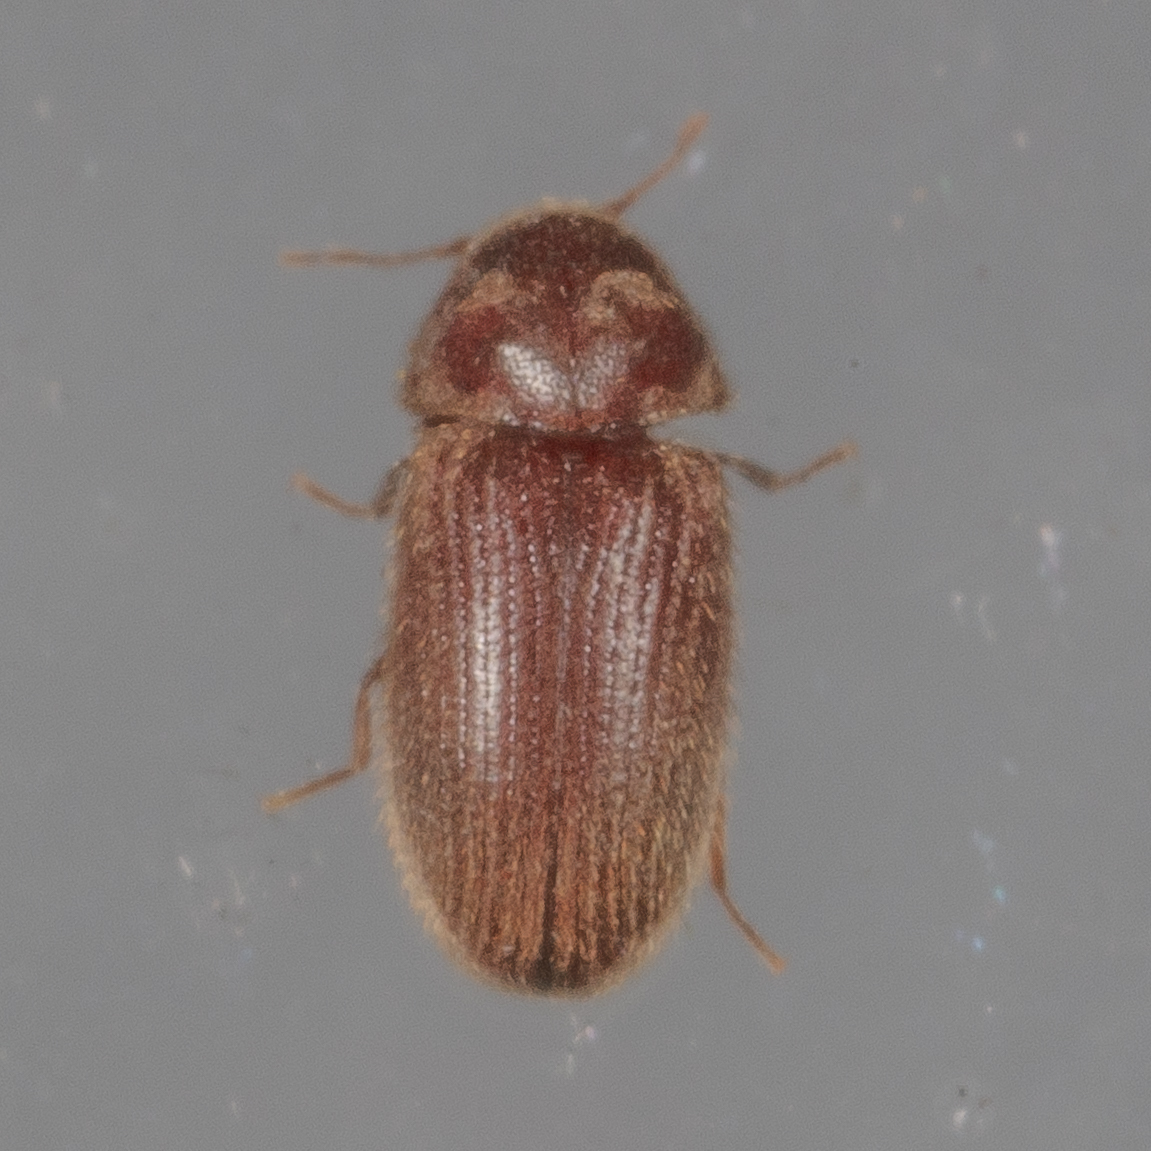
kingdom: Animalia
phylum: Arthropoda
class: Insecta
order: Coleoptera
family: Anobiidae
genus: Stegobium
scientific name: Stegobium paniceum
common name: Drugstore beetle
